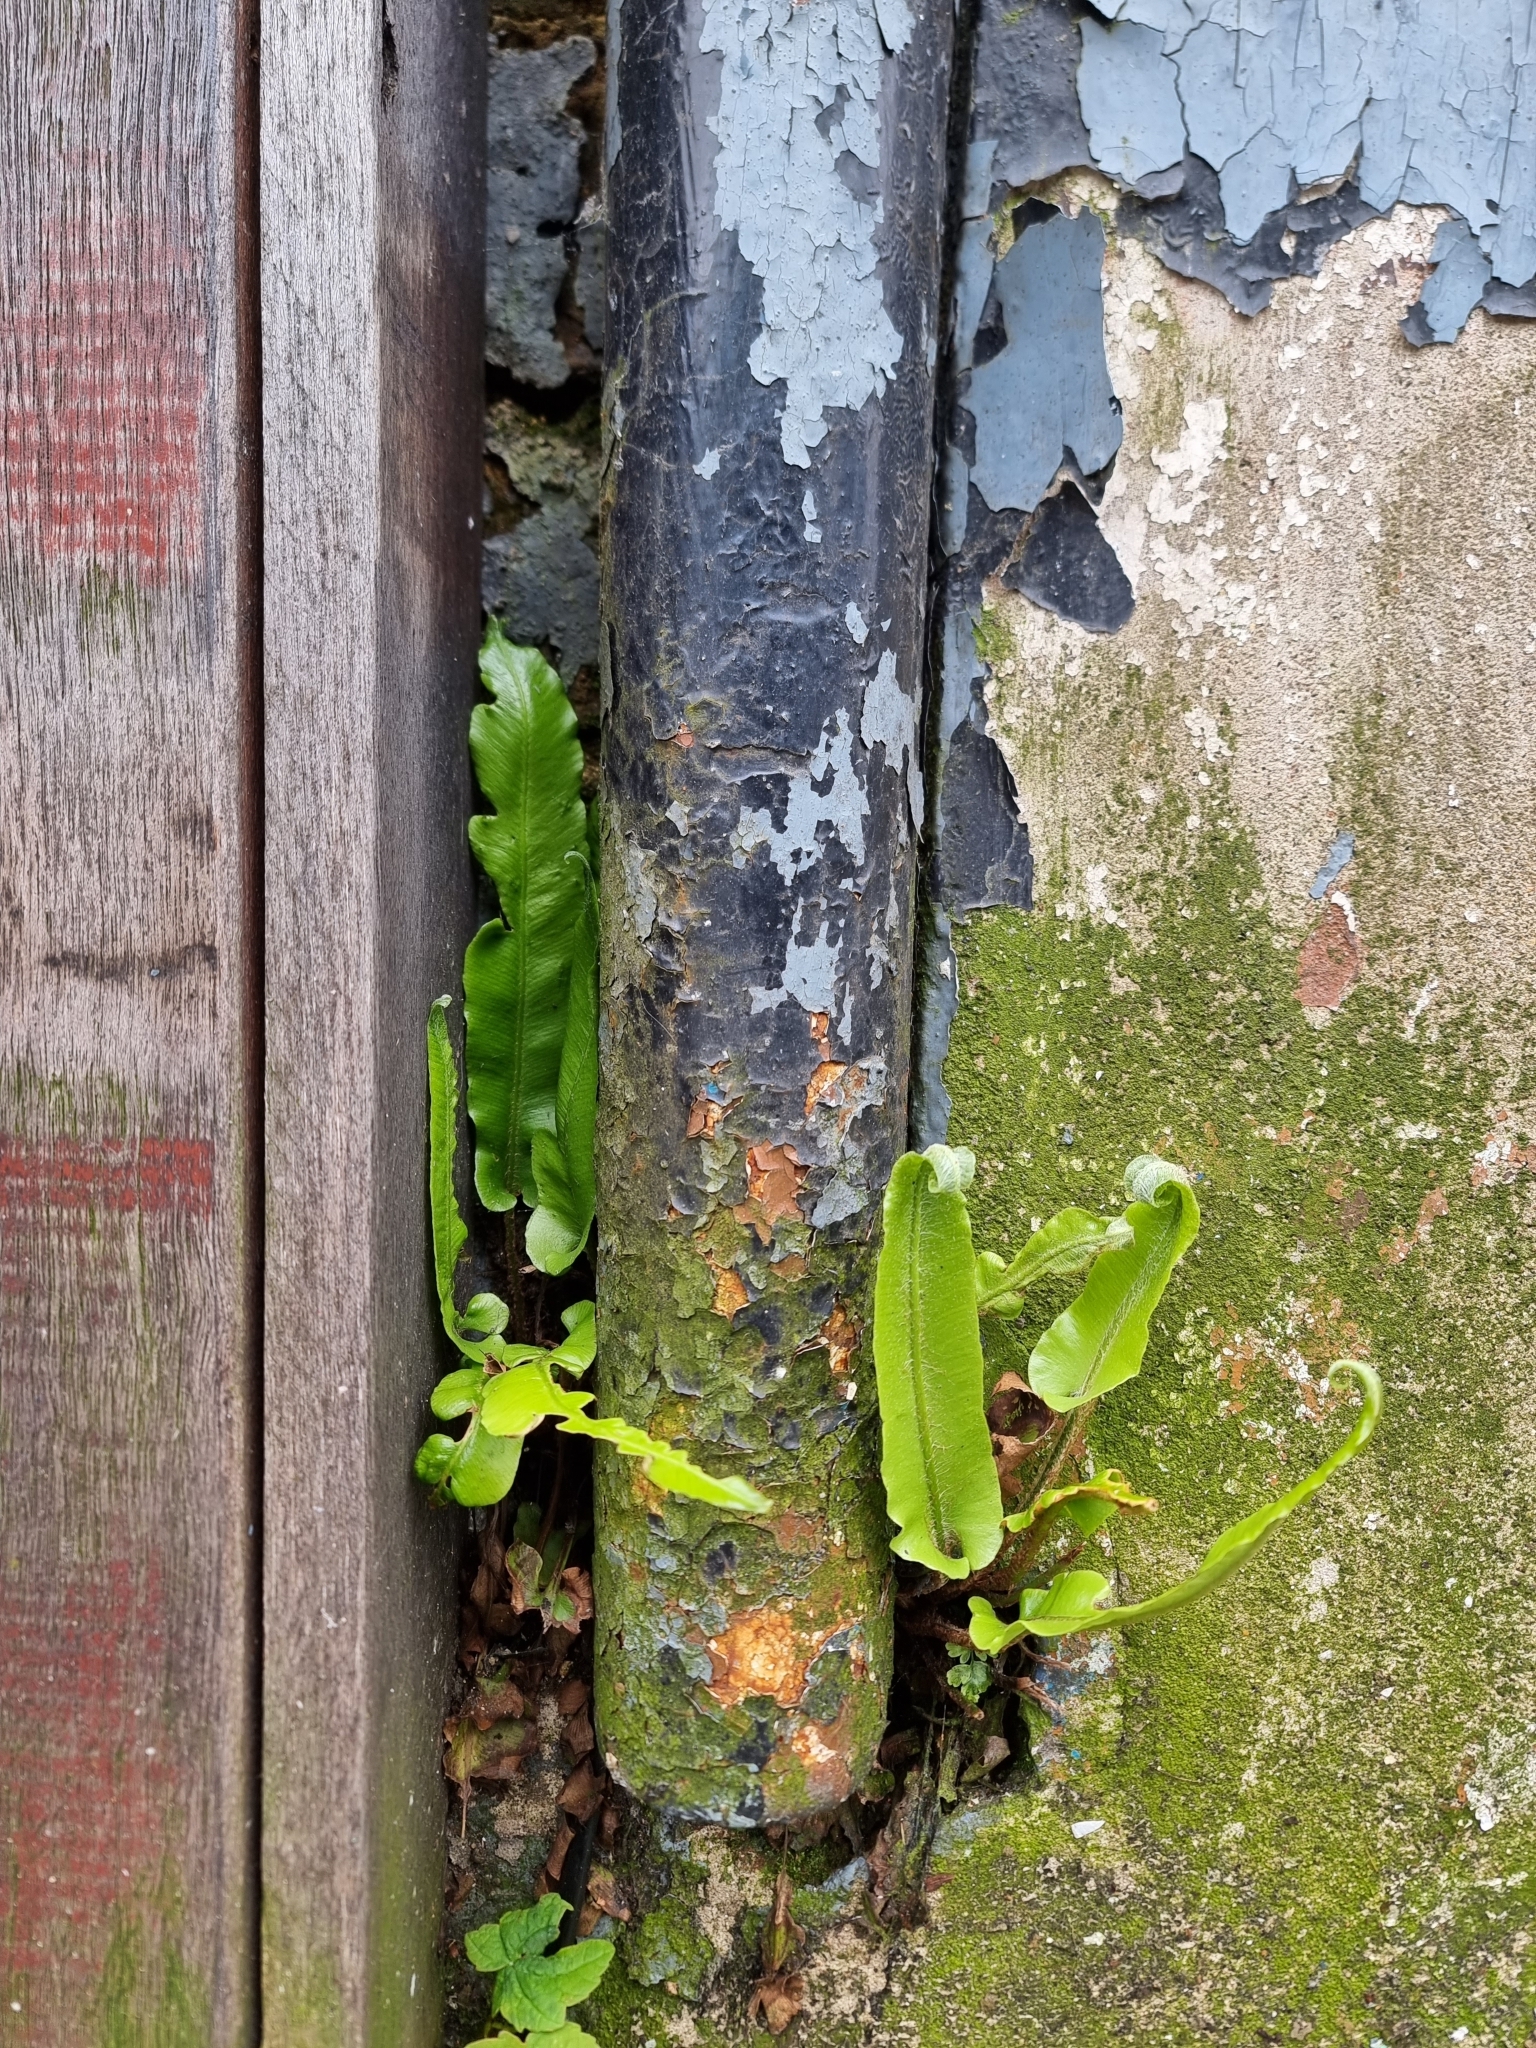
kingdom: Plantae
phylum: Tracheophyta
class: Polypodiopsida
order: Polypodiales
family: Aspleniaceae
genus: Asplenium
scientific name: Asplenium scolopendrium
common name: Hart's-tongue fern
